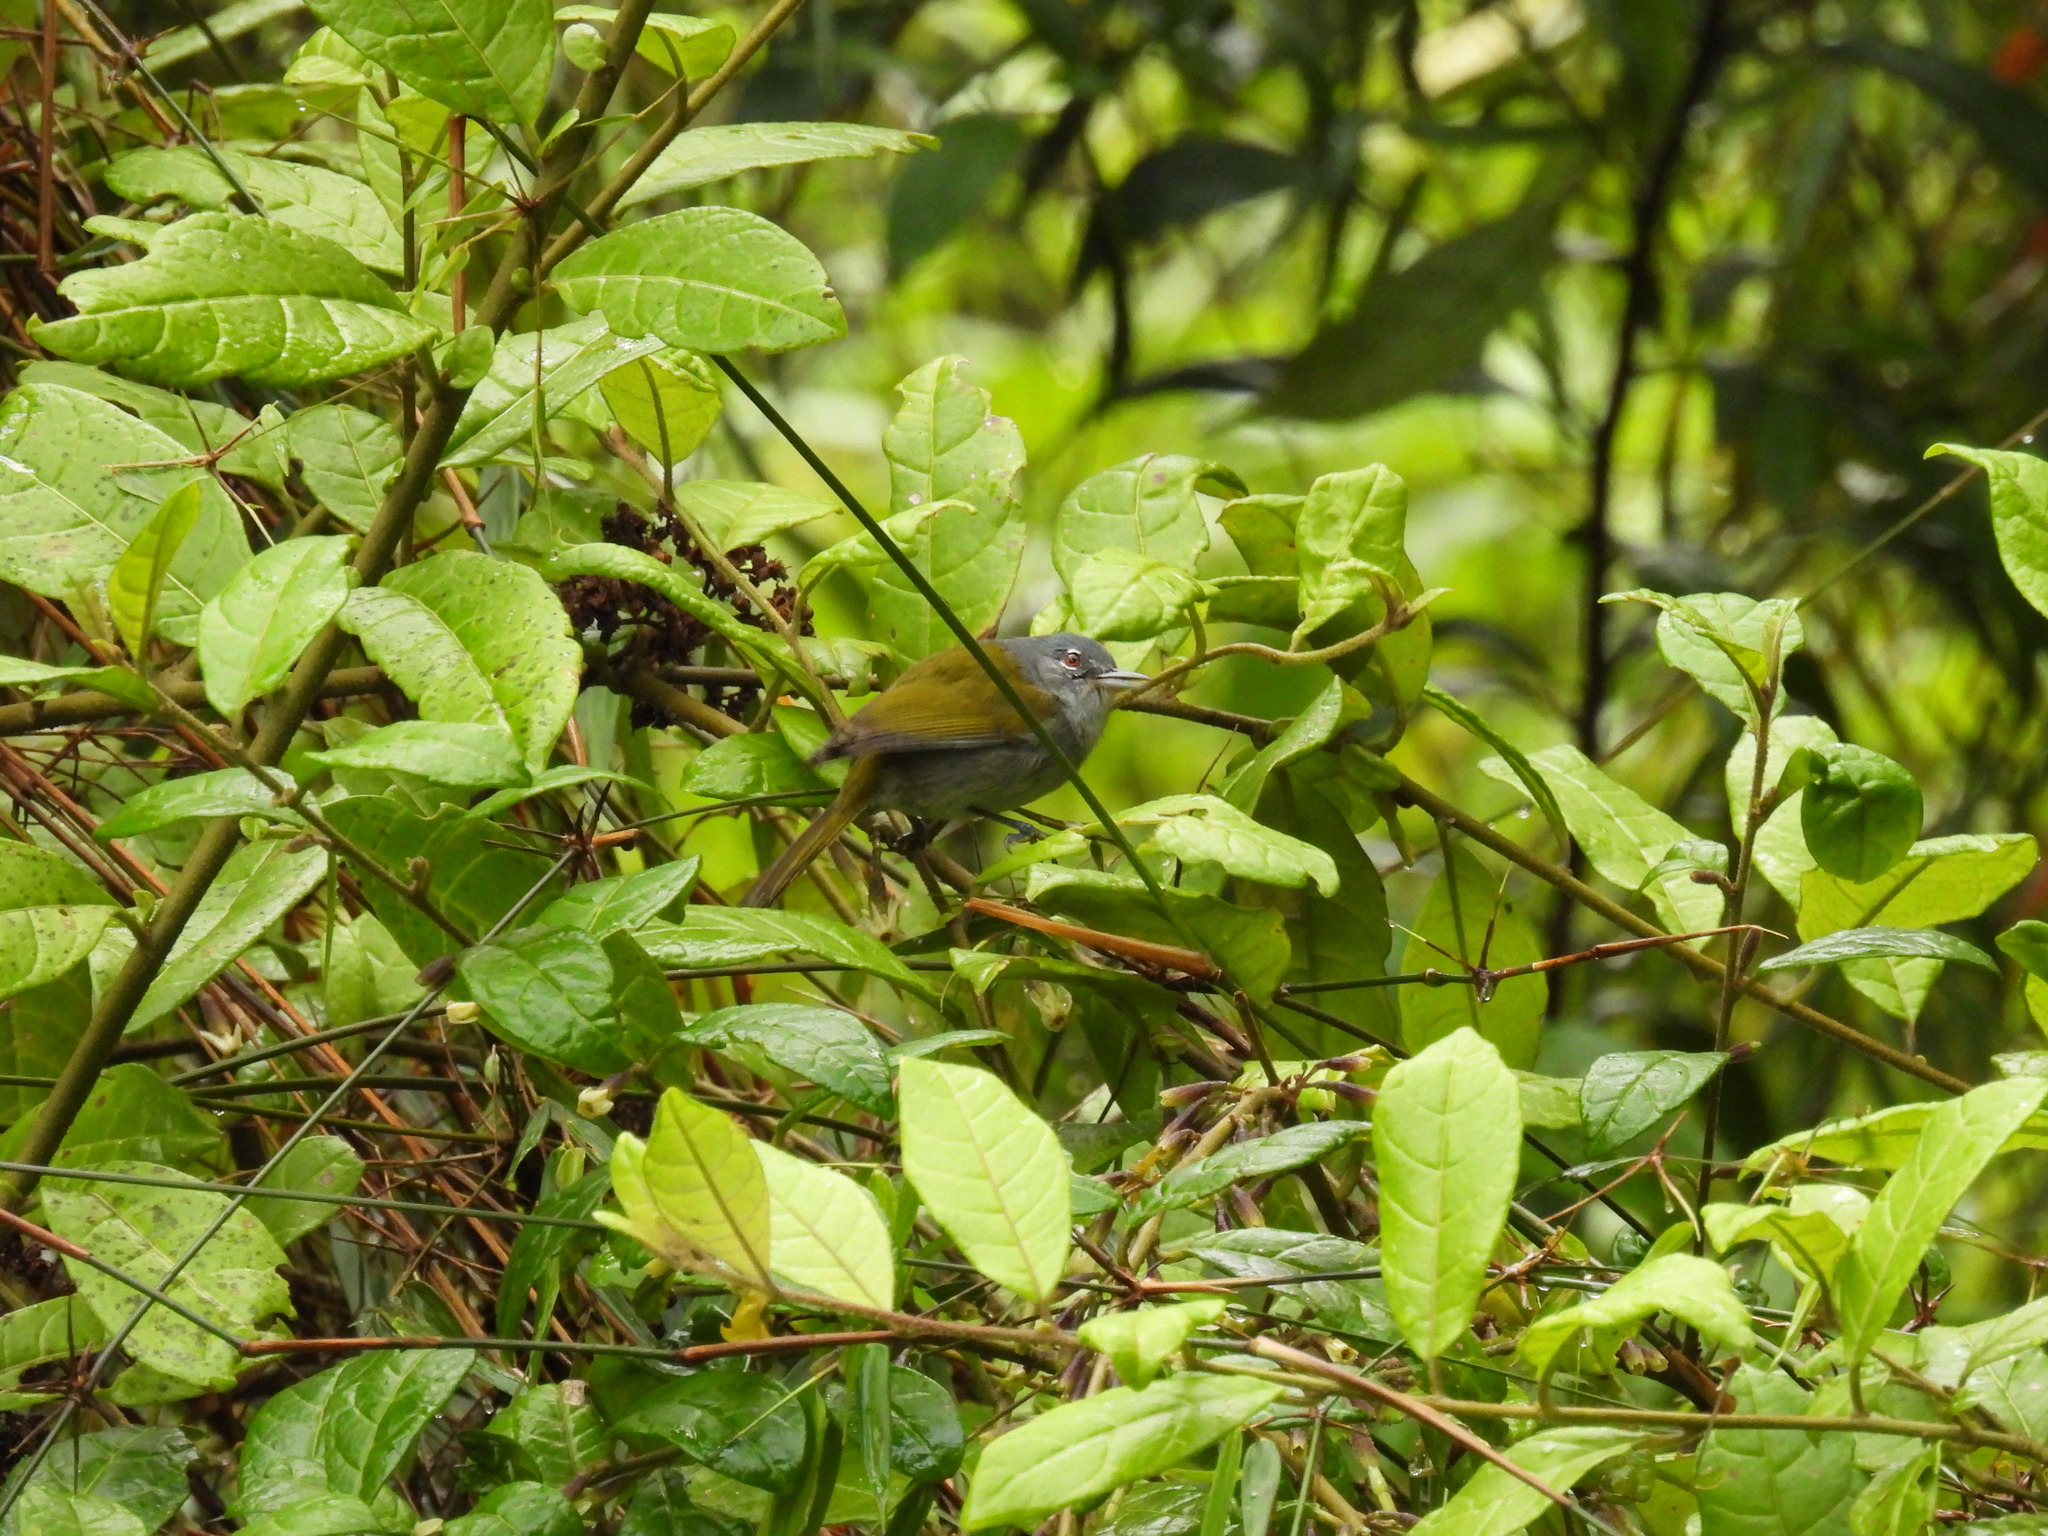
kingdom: Animalia
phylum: Chordata
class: Aves
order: Passeriformes
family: Parulidae
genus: Microligea
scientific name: Microligea palustris
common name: Green-tailed warbler
